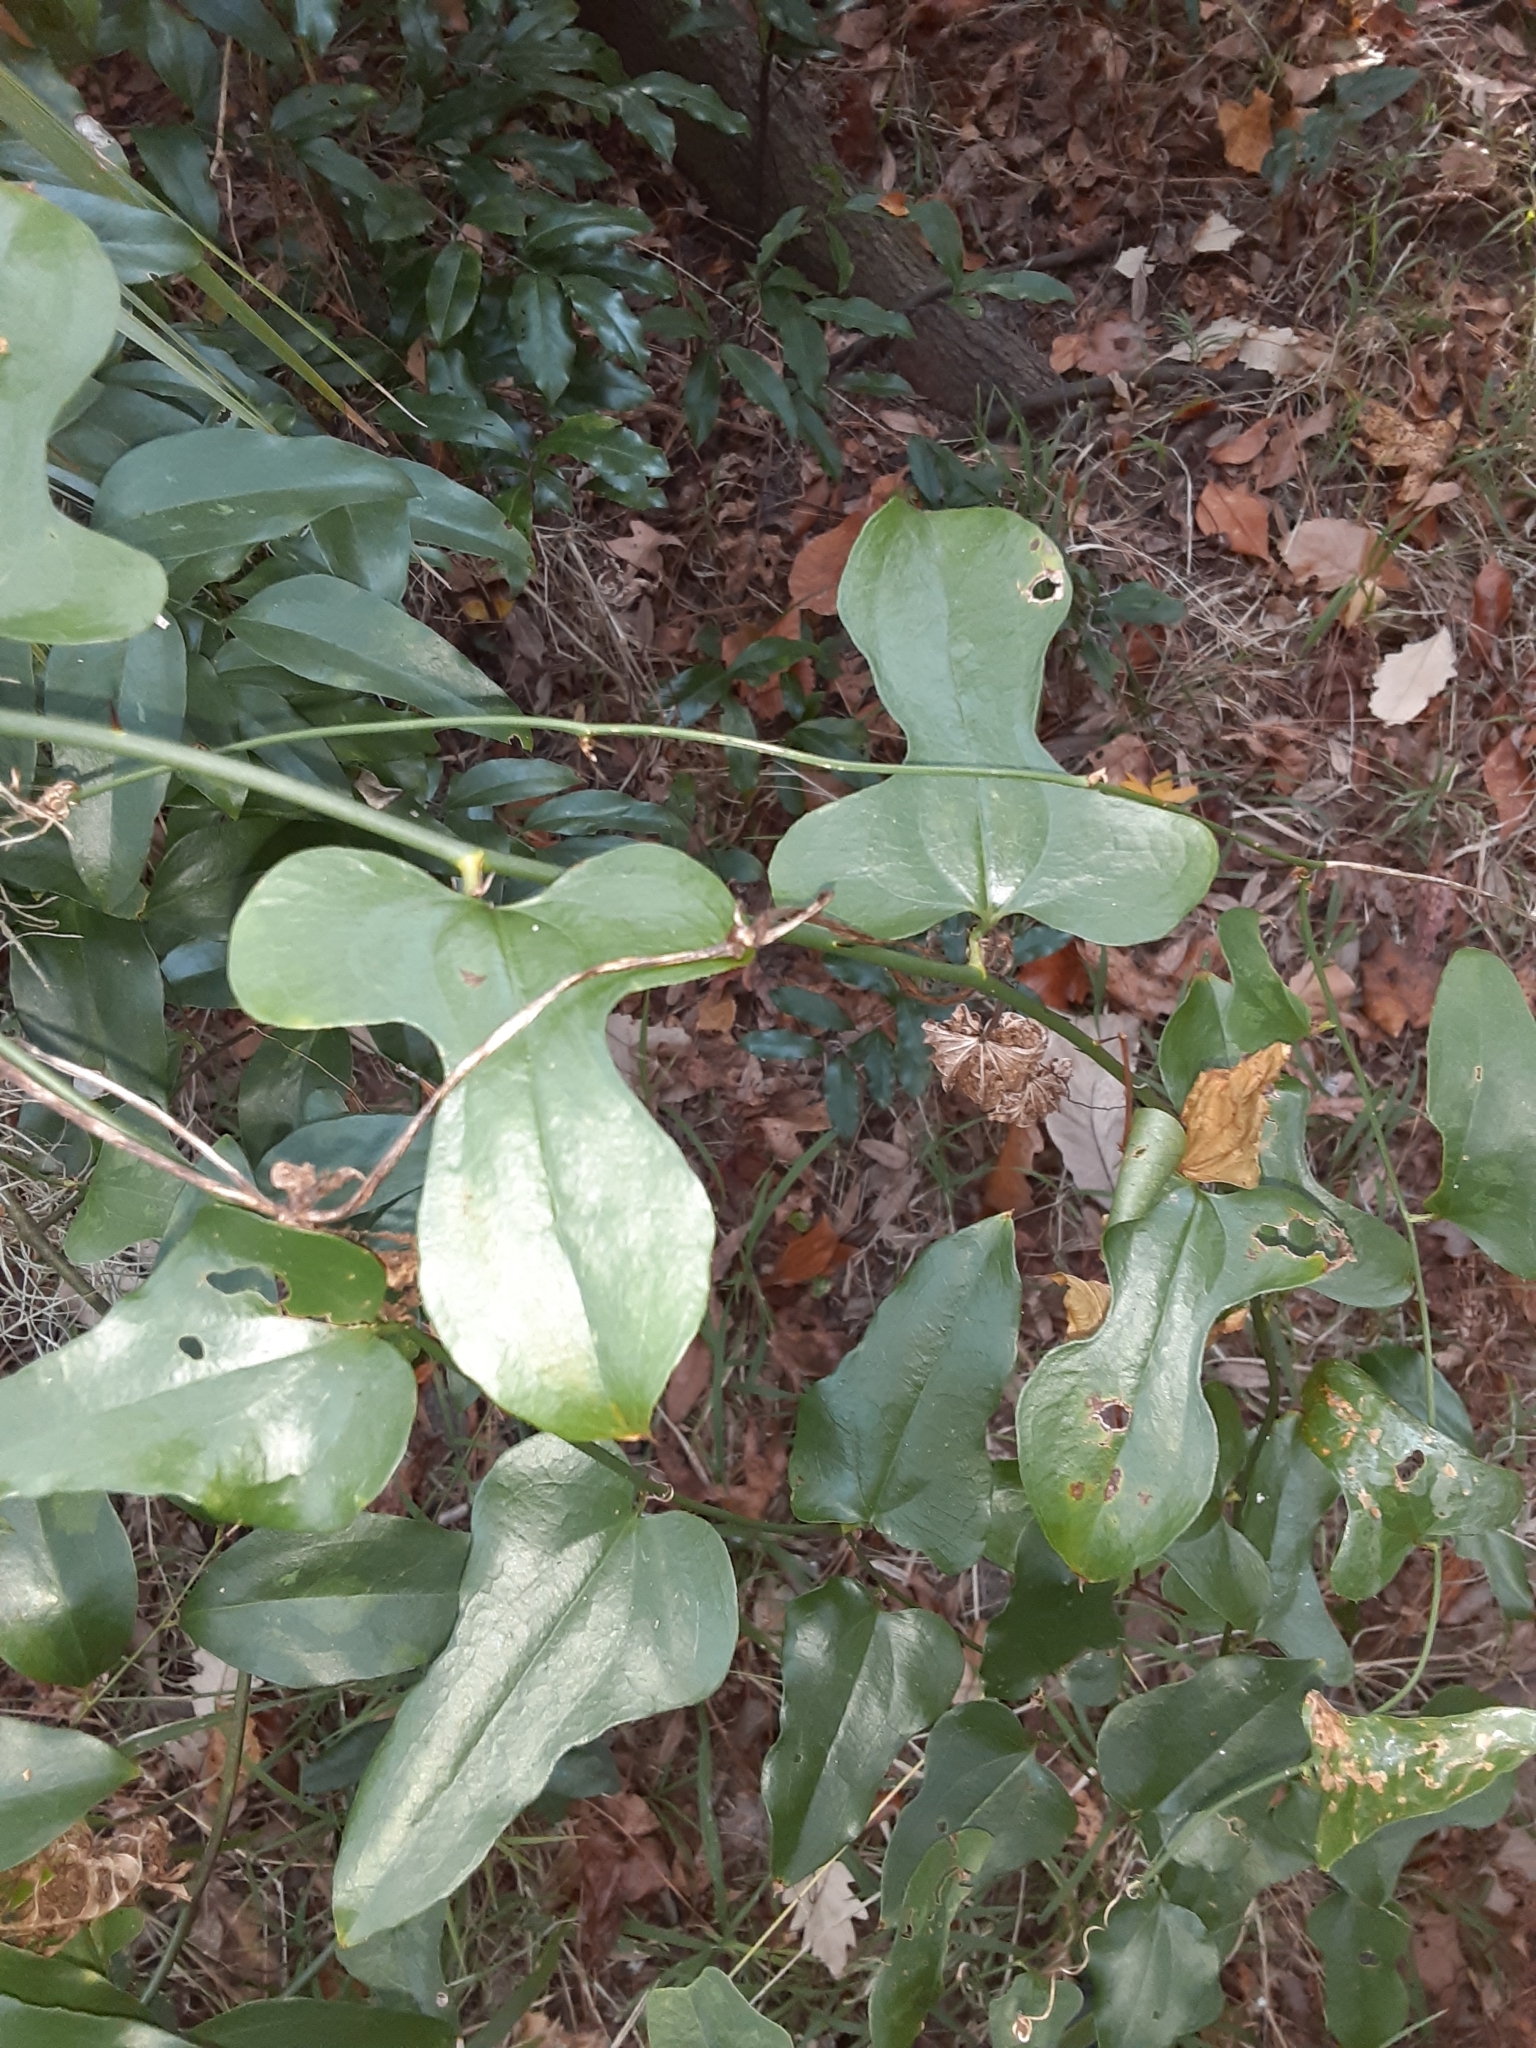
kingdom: Plantae
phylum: Tracheophyta
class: Liliopsida
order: Liliales
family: Smilacaceae
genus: Smilax
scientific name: Smilax tamnoides
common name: Hellfetter
